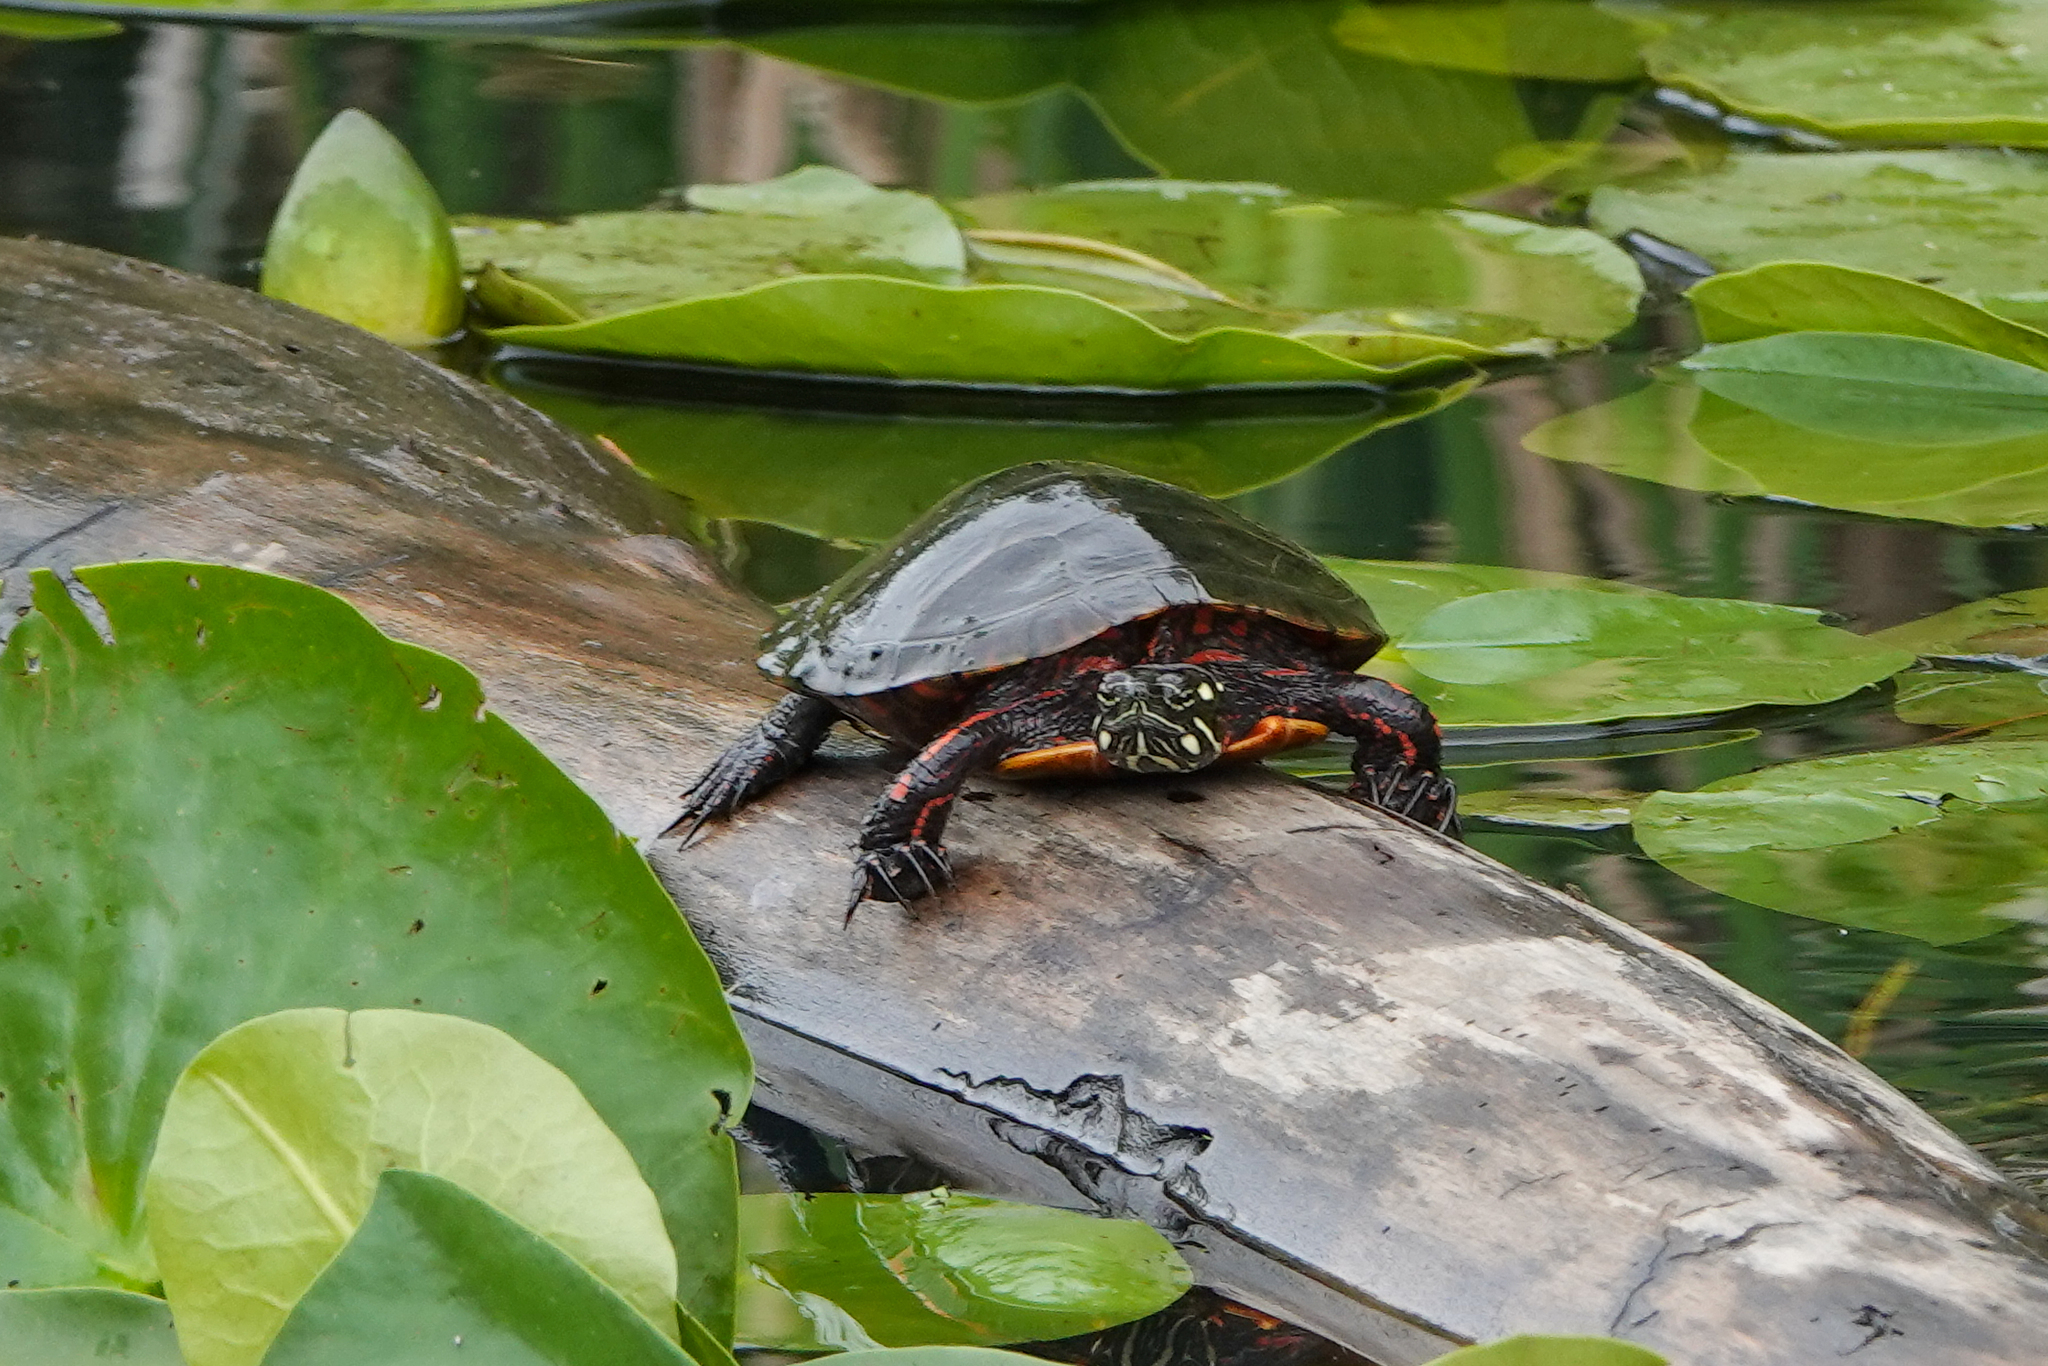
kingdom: Animalia
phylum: Chordata
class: Testudines
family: Emydidae
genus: Chrysemys
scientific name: Chrysemys picta
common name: Painted turtle
